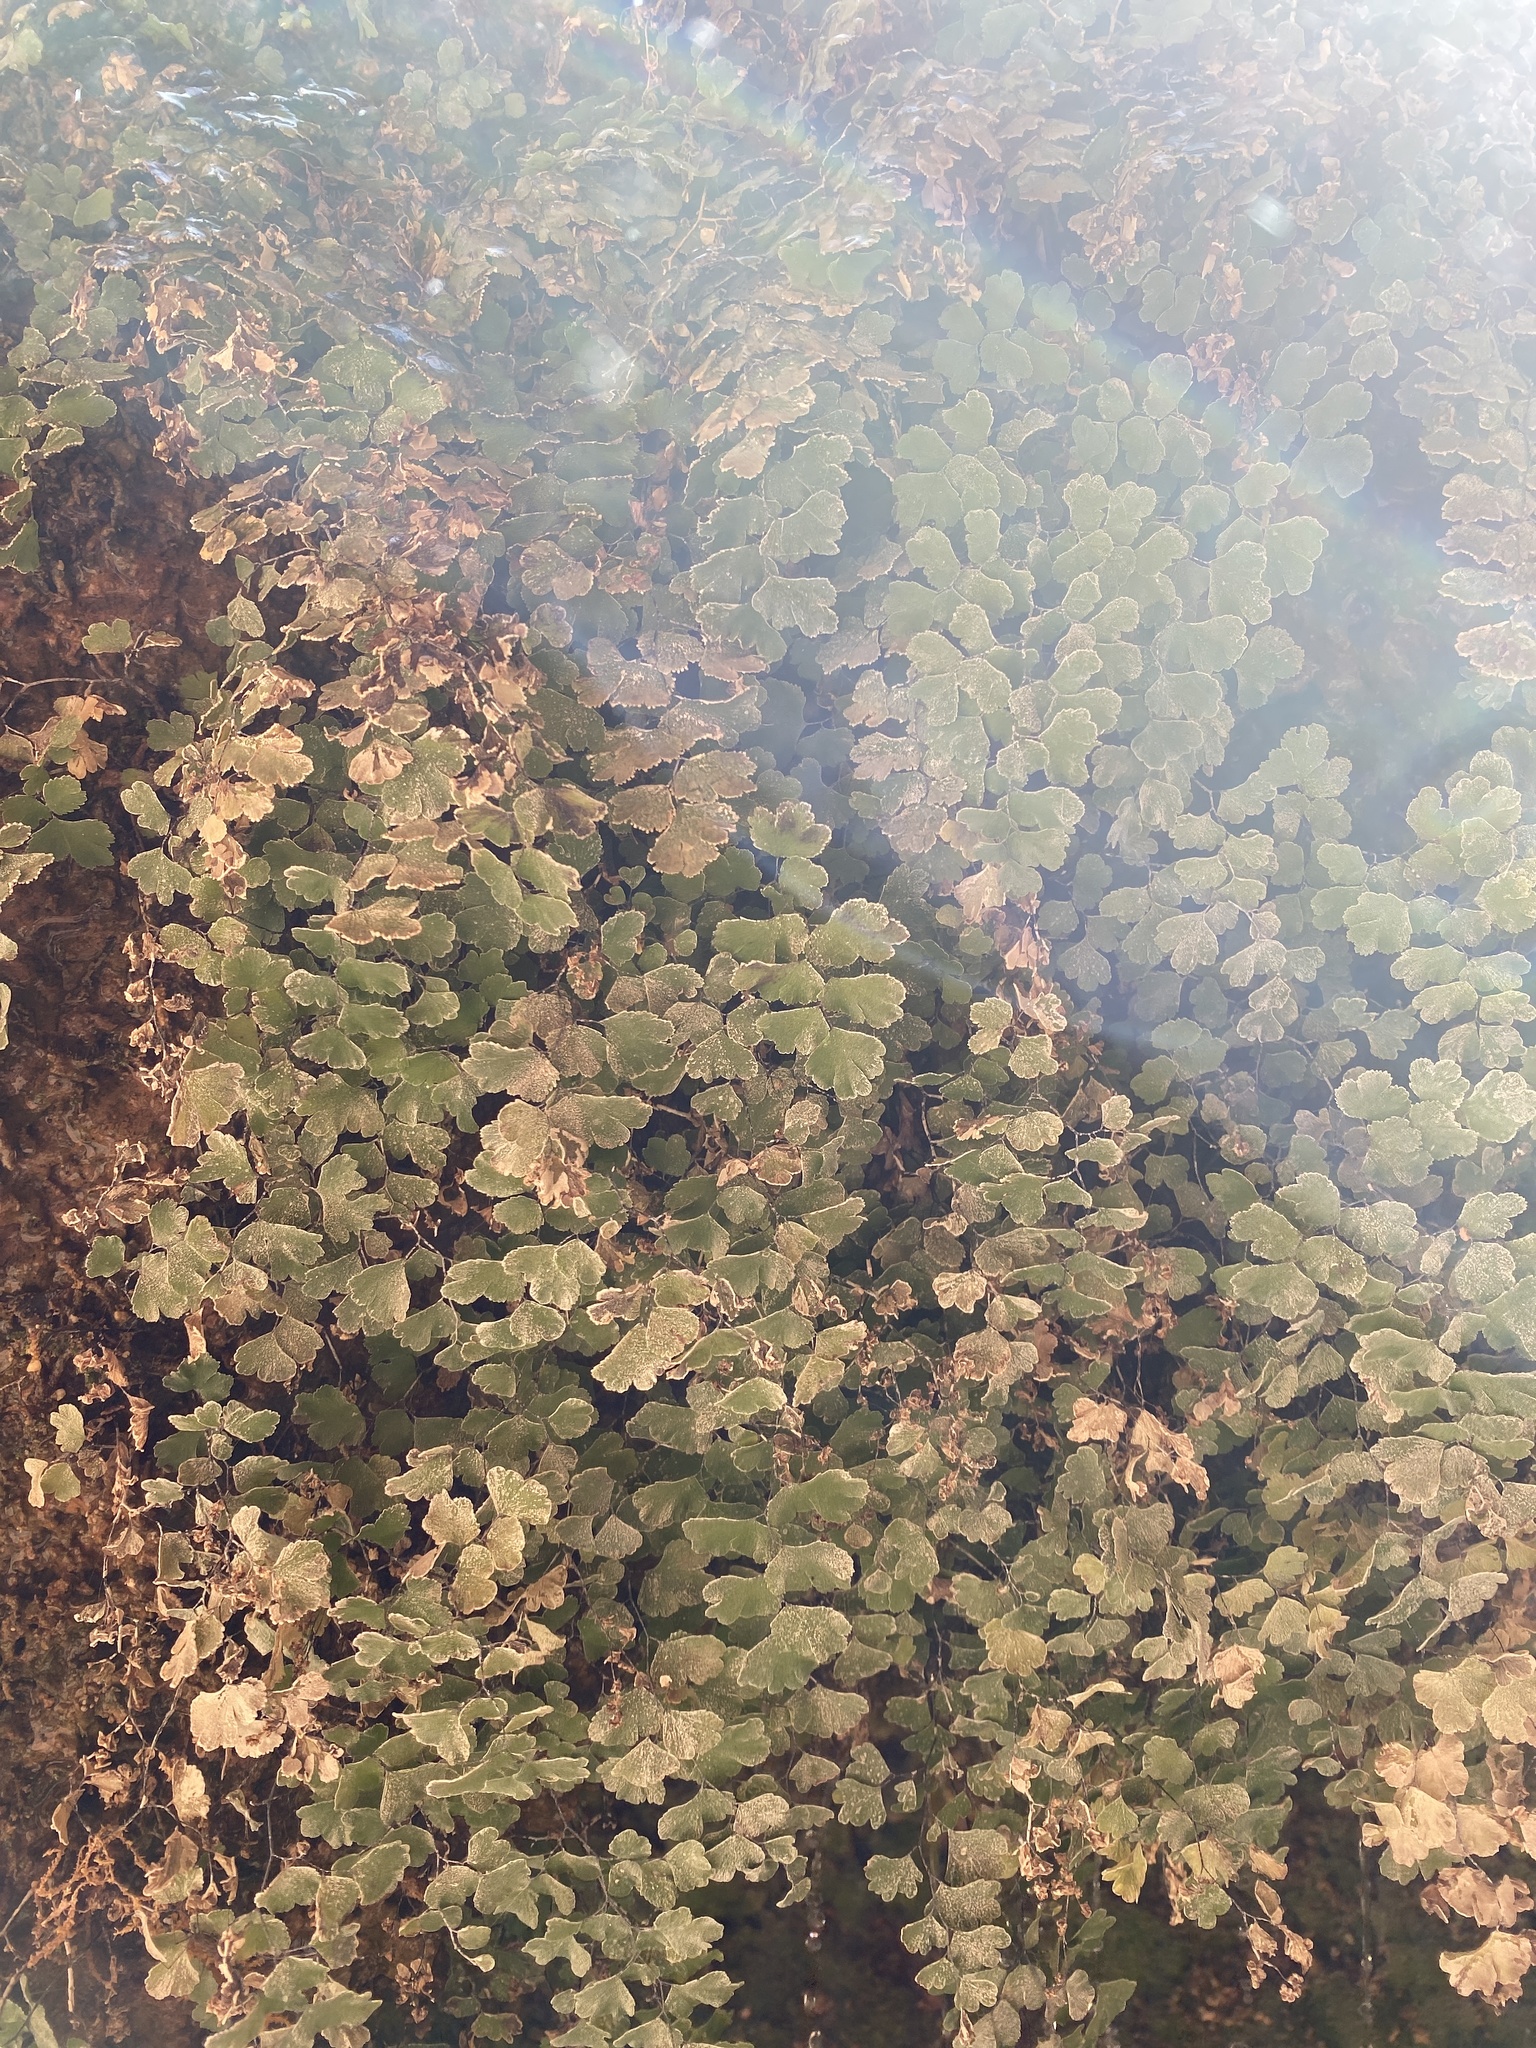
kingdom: Plantae
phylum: Tracheophyta
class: Polypodiopsida
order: Polypodiales
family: Pteridaceae
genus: Adiantum
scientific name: Adiantum capillus-veneris
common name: Maidenhair fern
